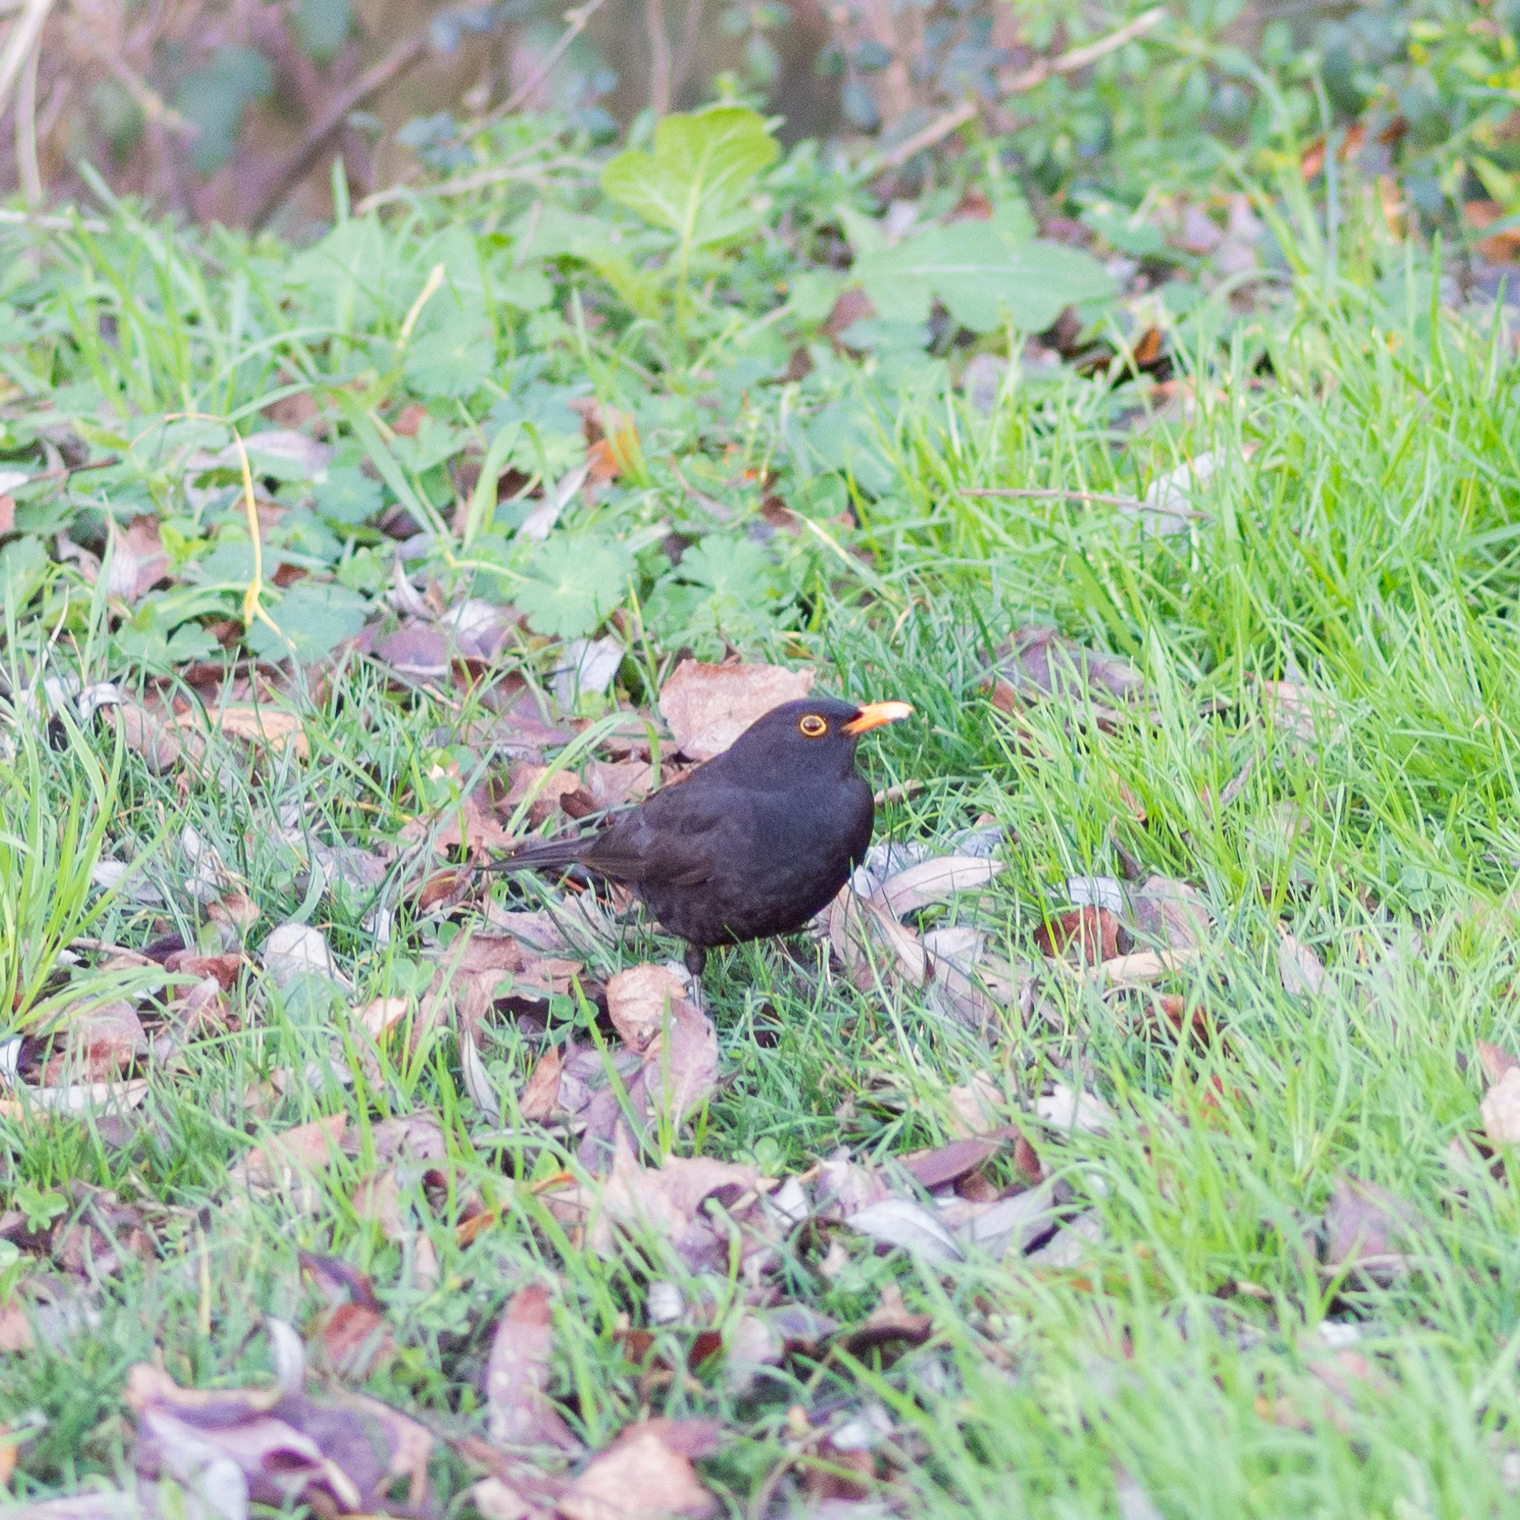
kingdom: Animalia
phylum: Chordata
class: Aves
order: Passeriformes
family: Turdidae
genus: Turdus
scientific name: Turdus merula
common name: Common blackbird
